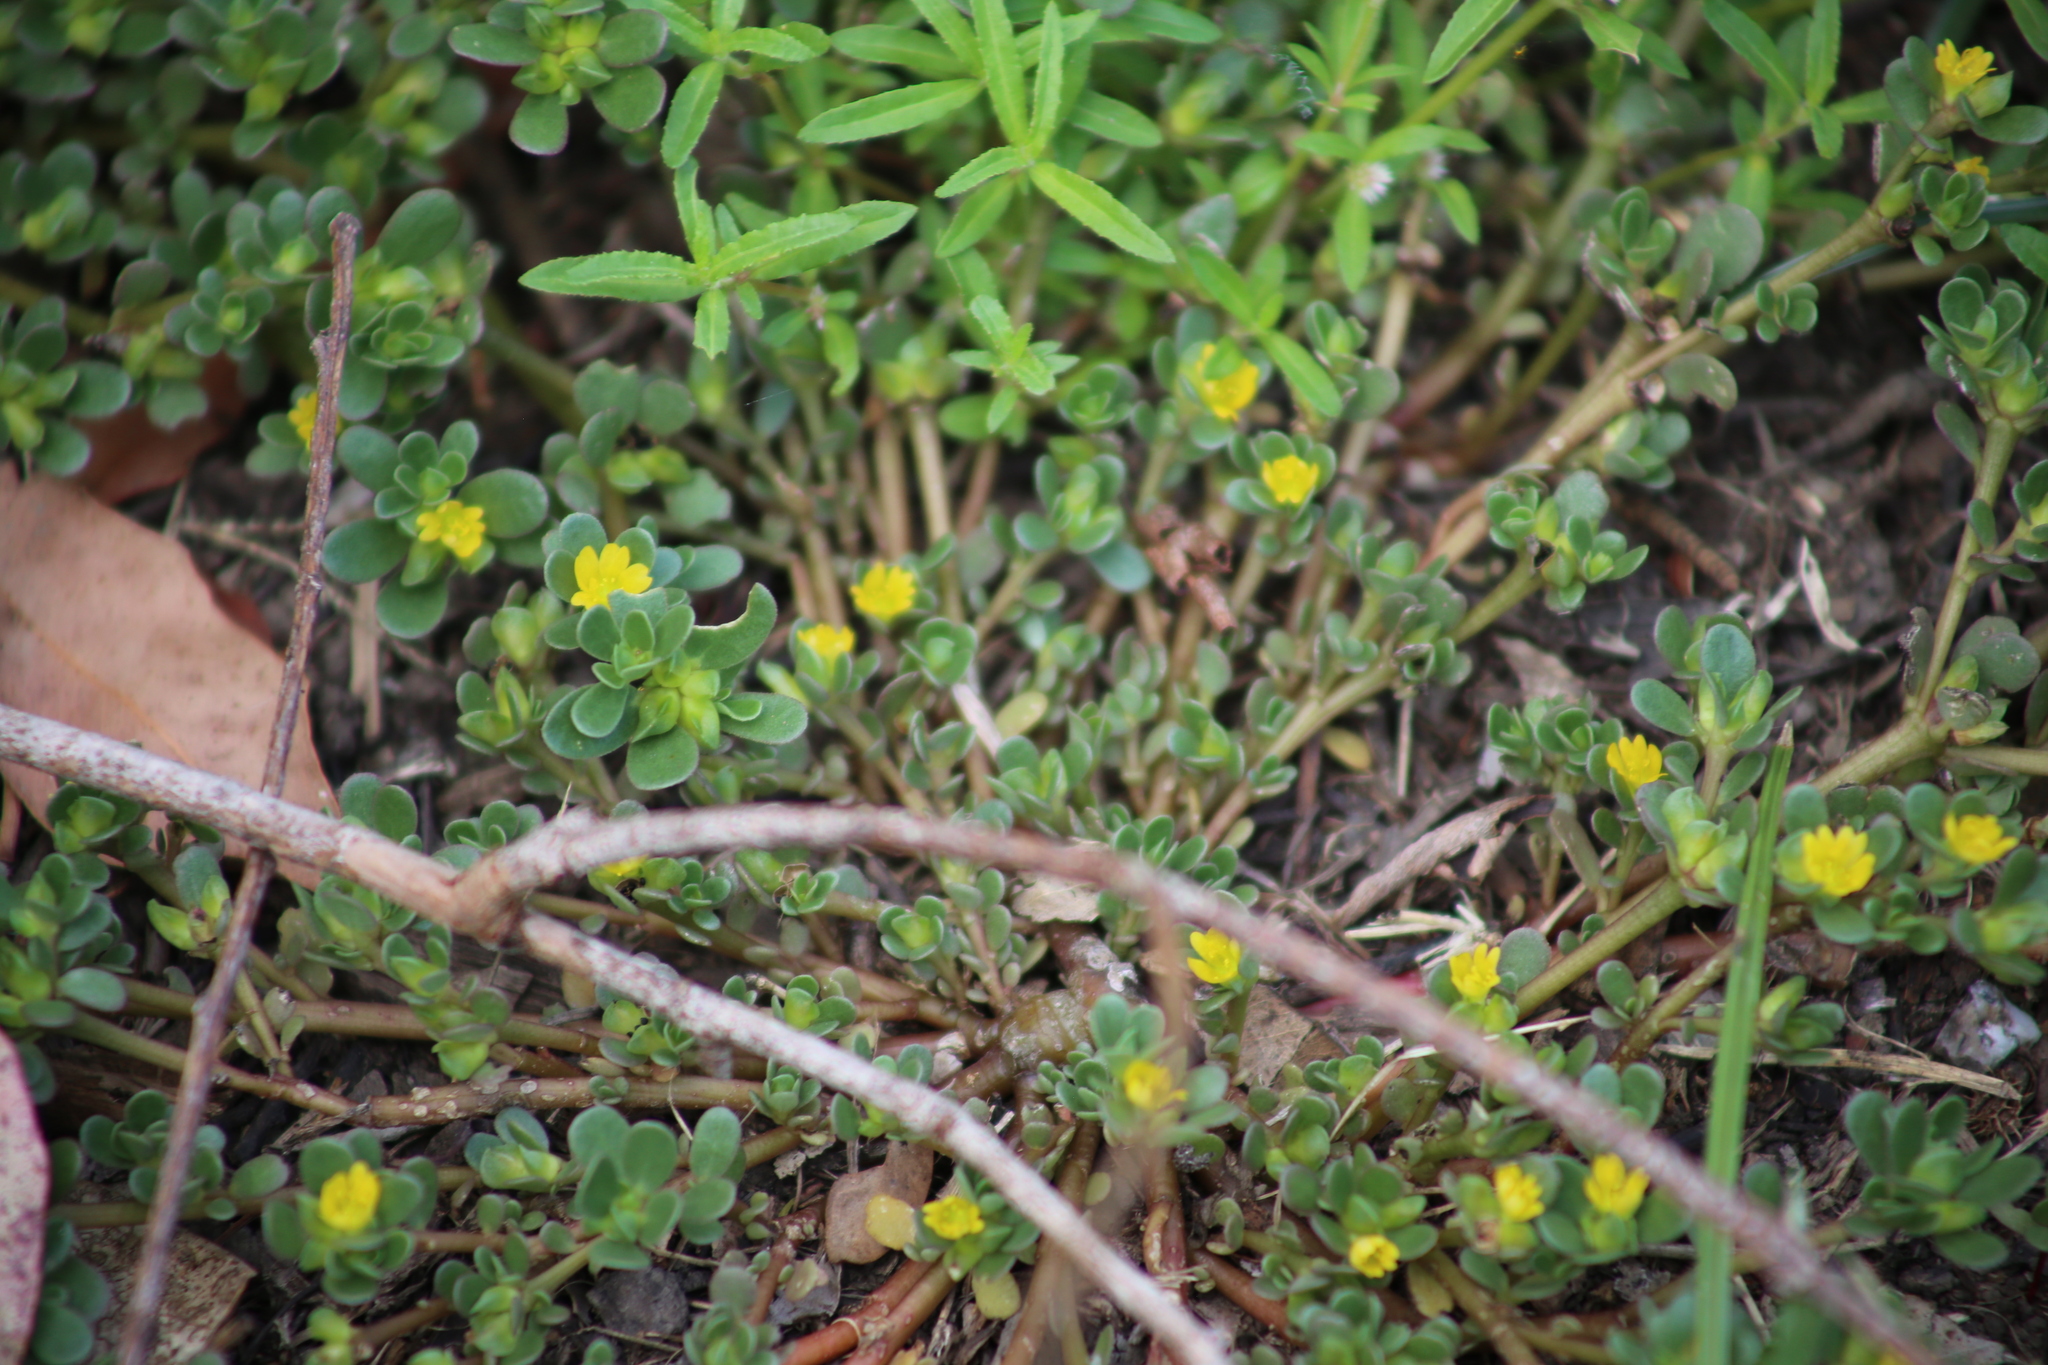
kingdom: Plantae
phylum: Tracheophyta
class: Magnoliopsida
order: Caryophyllales
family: Portulacaceae
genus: Portulaca
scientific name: Portulaca oleracea
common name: Common purslane
